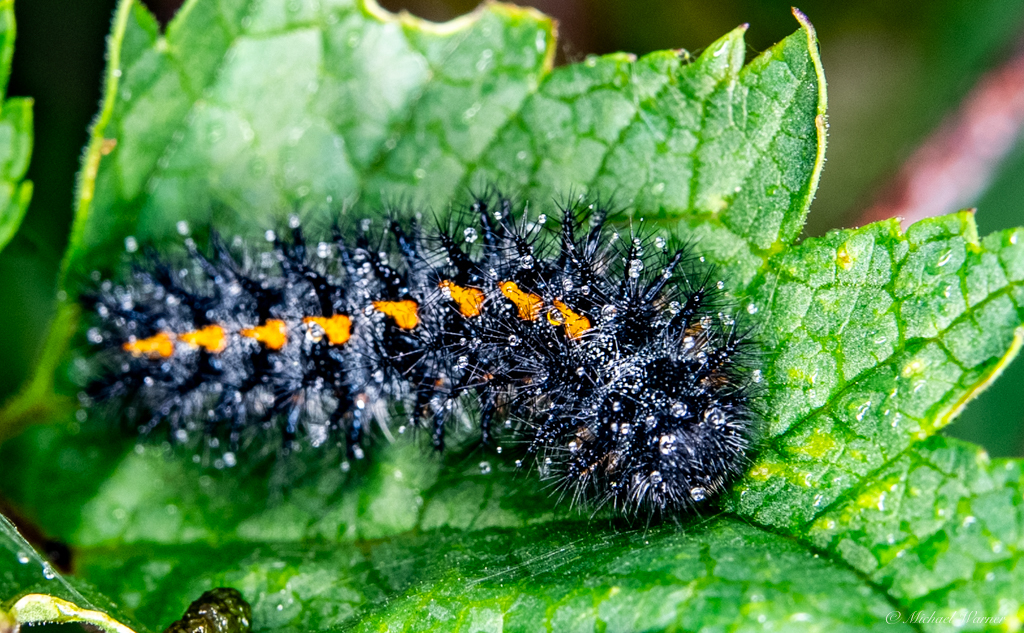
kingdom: Animalia
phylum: Arthropoda
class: Insecta
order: Lepidoptera
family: Nymphalidae
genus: Occidryas
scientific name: Occidryas chalcedona
